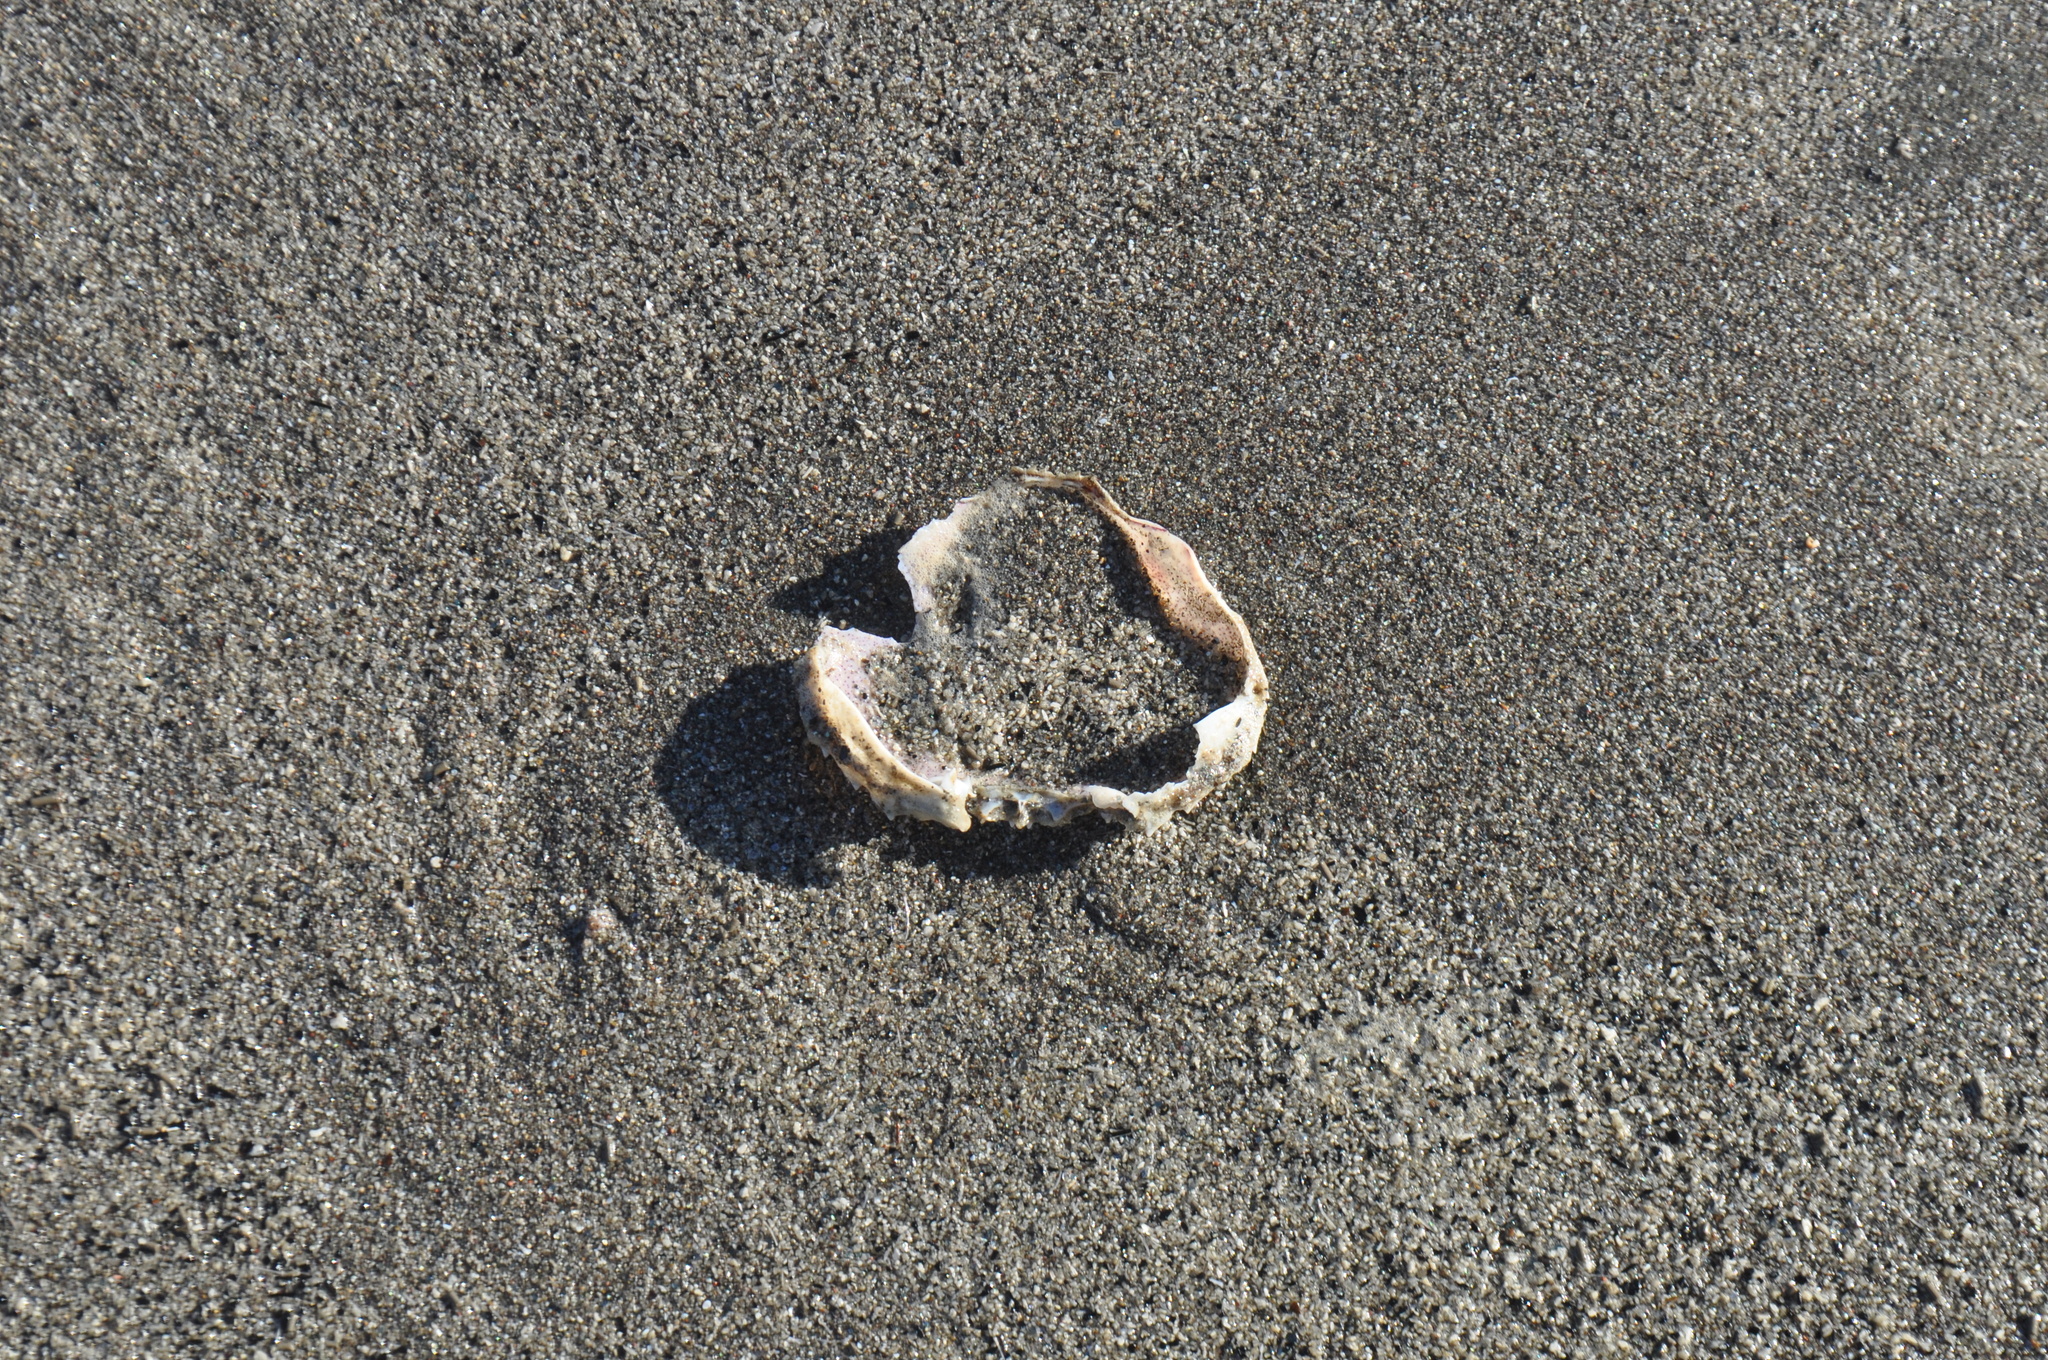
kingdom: Animalia
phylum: Arthropoda
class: Malacostraca
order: Decapoda
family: Ovalipidae
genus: Ovalipes
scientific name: Ovalipes catharus
